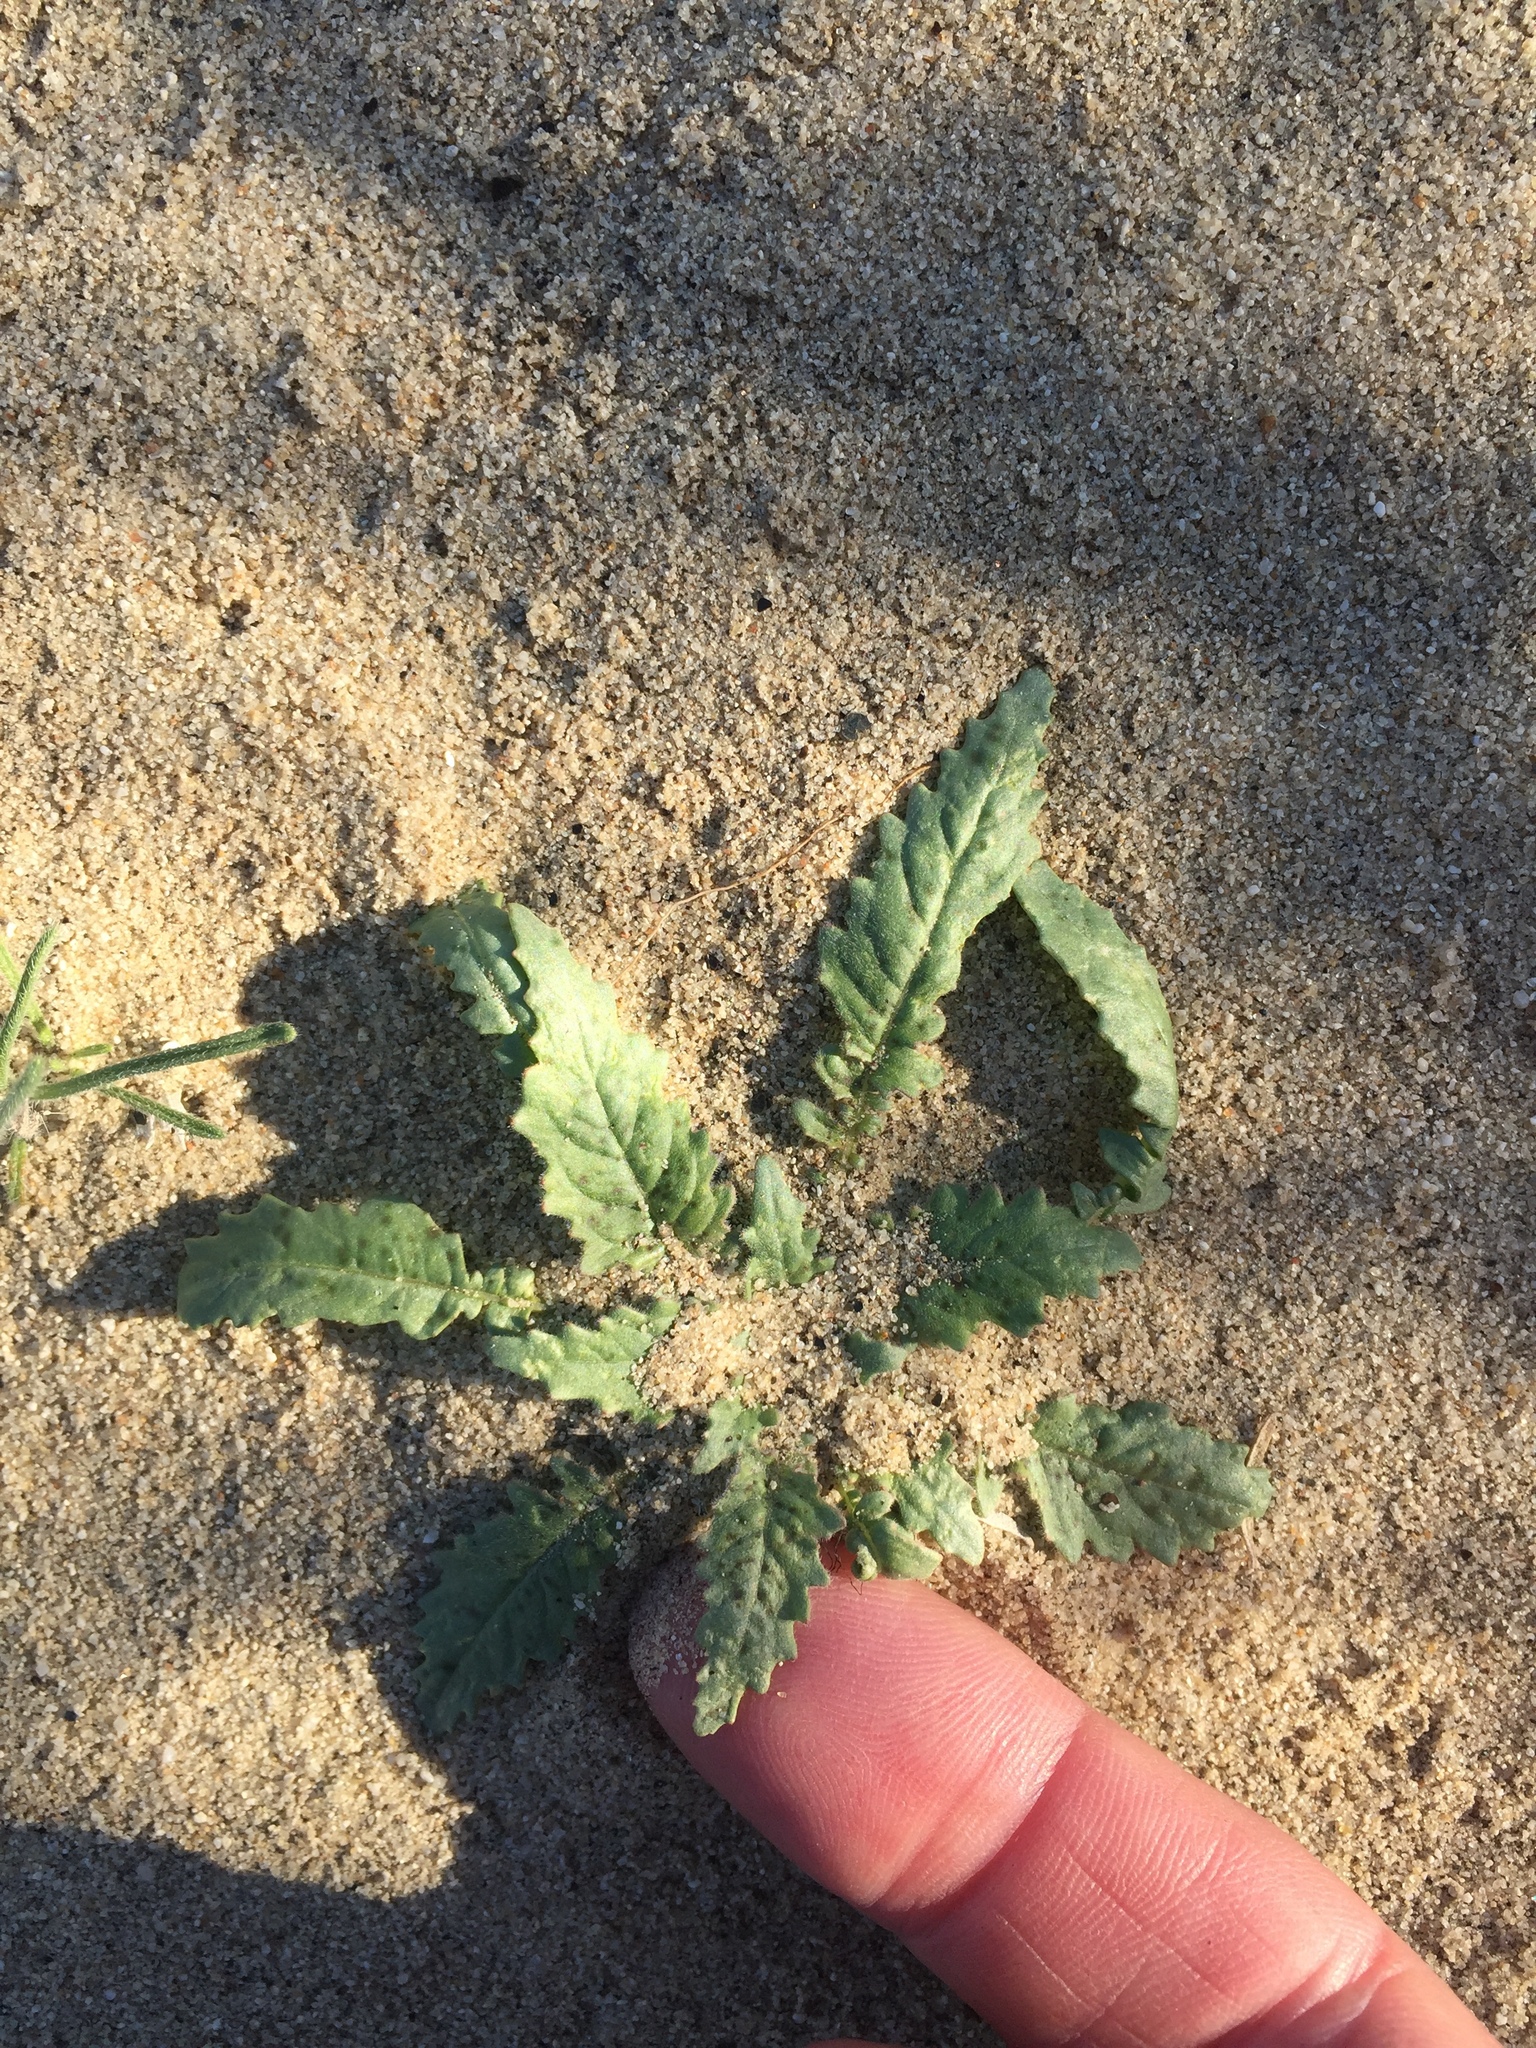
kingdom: Plantae
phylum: Tracheophyta
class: Magnoliopsida
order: Myrtales
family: Onagraceae
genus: Chylismia
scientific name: Chylismia claviformis
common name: Browneyes
